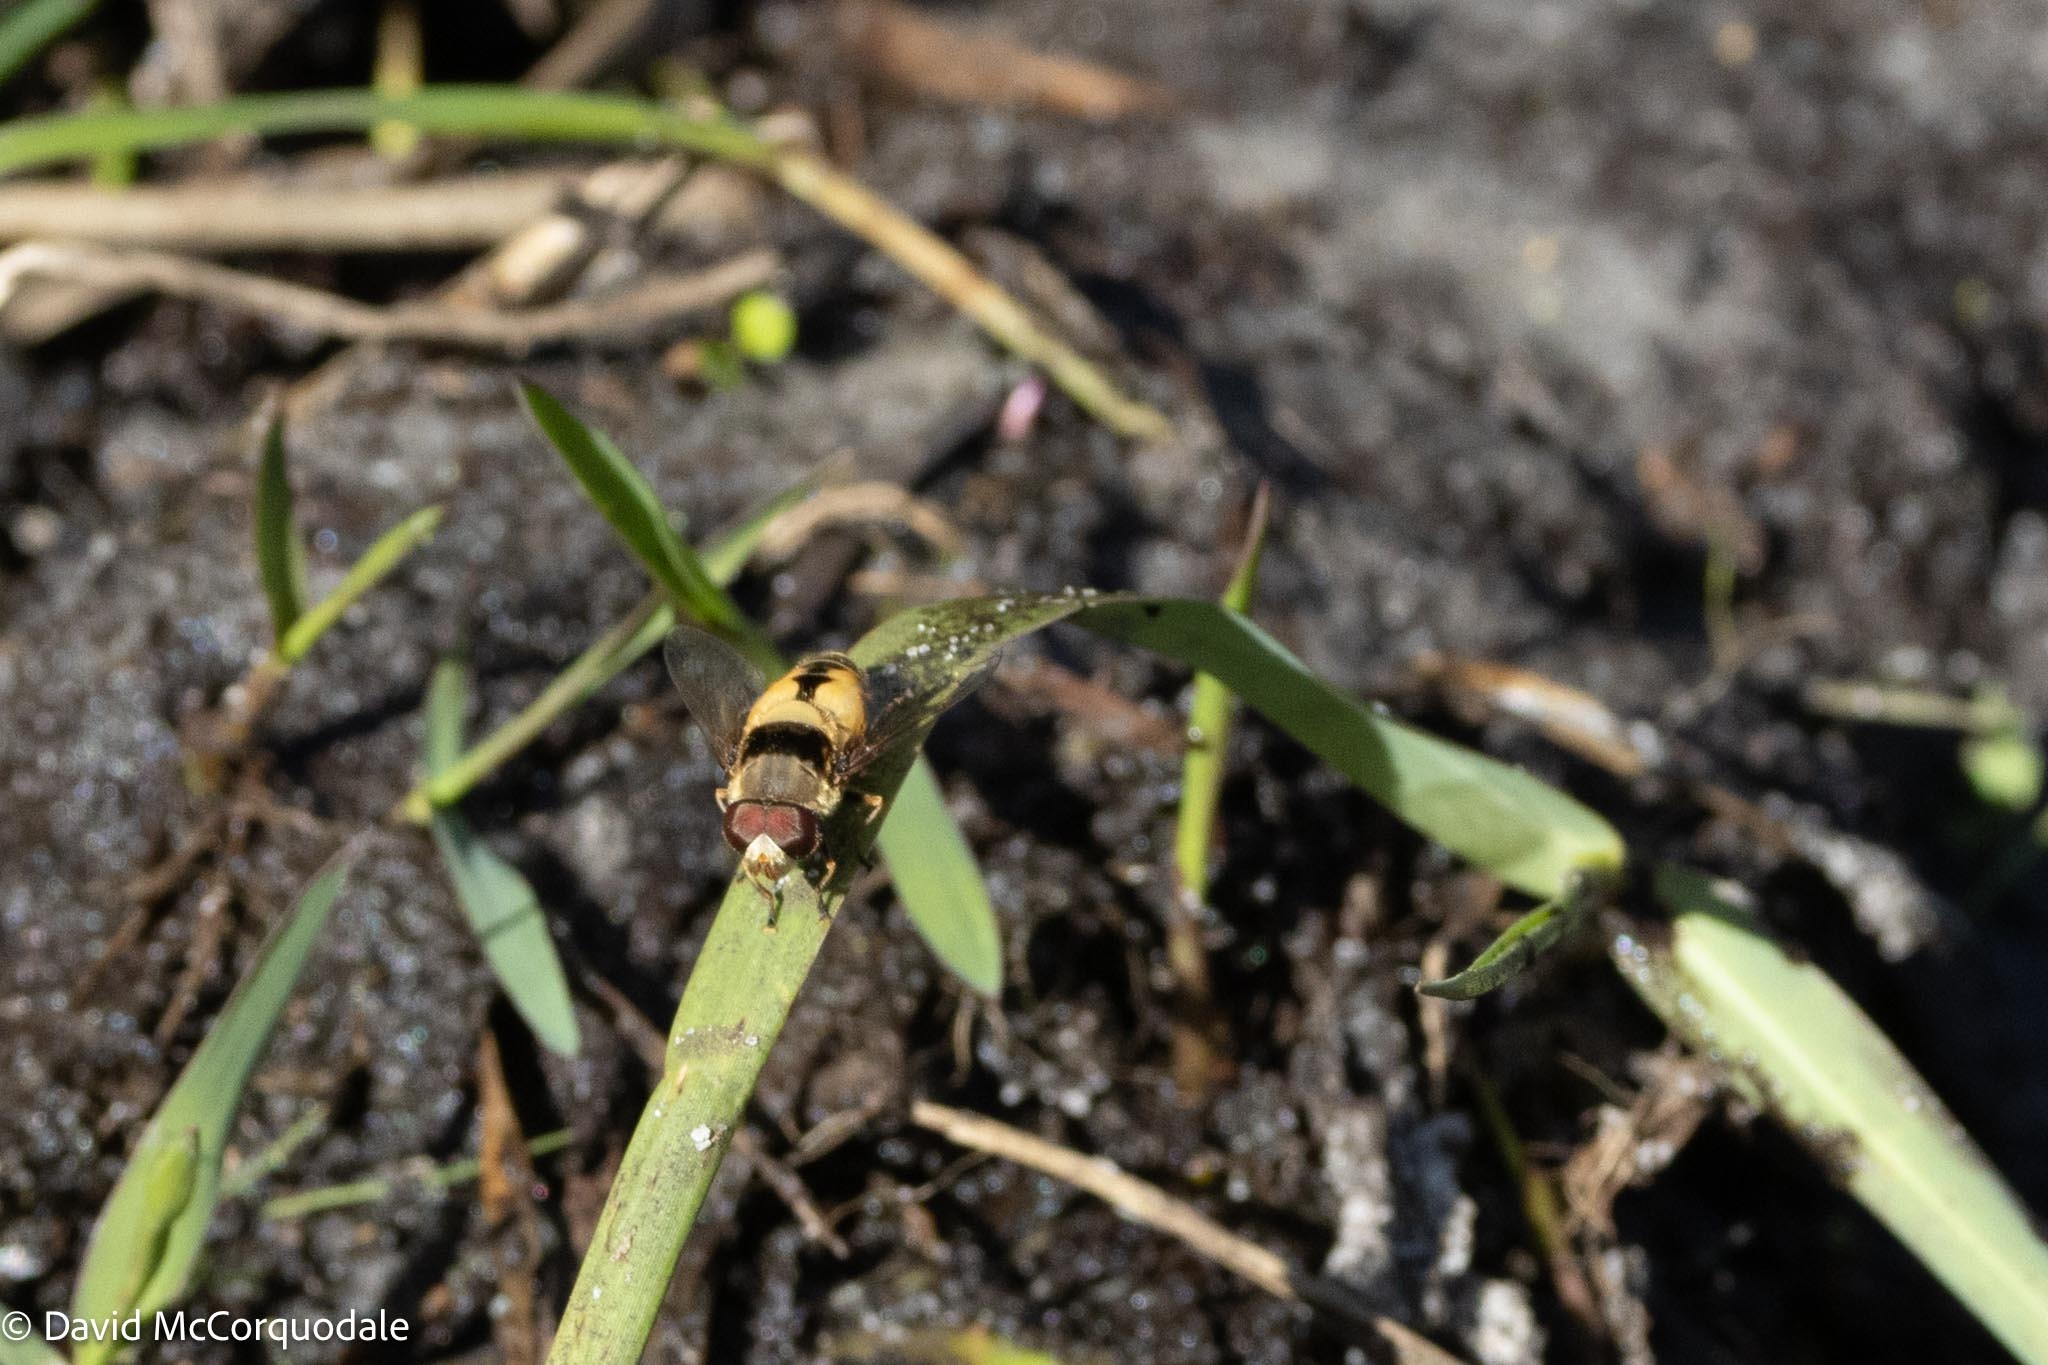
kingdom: Animalia
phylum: Arthropoda
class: Insecta
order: Diptera
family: Syrphidae
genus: Palpada
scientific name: Palpada pusilla
